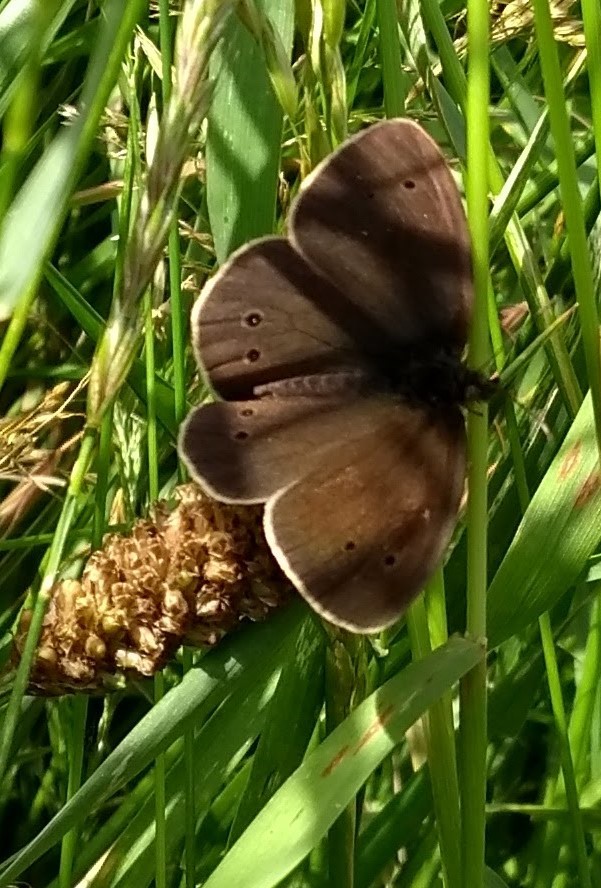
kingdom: Animalia
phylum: Arthropoda
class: Insecta
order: Lepidoptera
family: Nymphalidae
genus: Aphantopus
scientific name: Aphantopus hyperantus
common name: Ringlet
